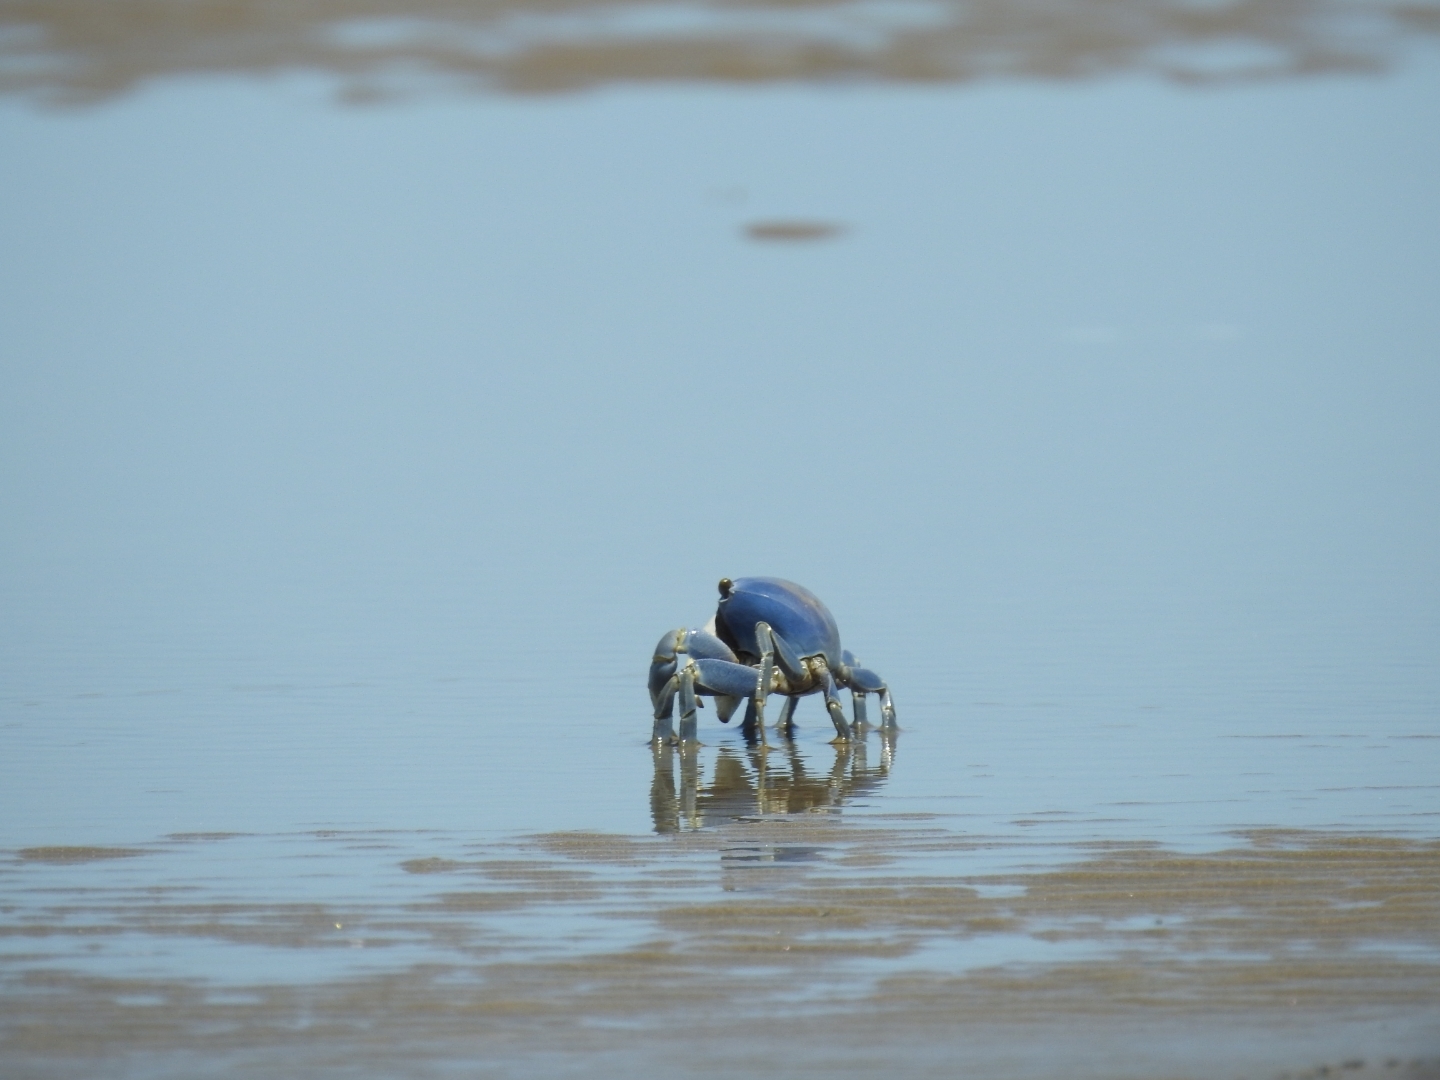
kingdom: Animalia
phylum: Arthropoda
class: Malacostraca
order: Decapoda
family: Gecarcinidae
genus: Cardisoma
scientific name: Cardisoma guanhumi
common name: Great land crab
